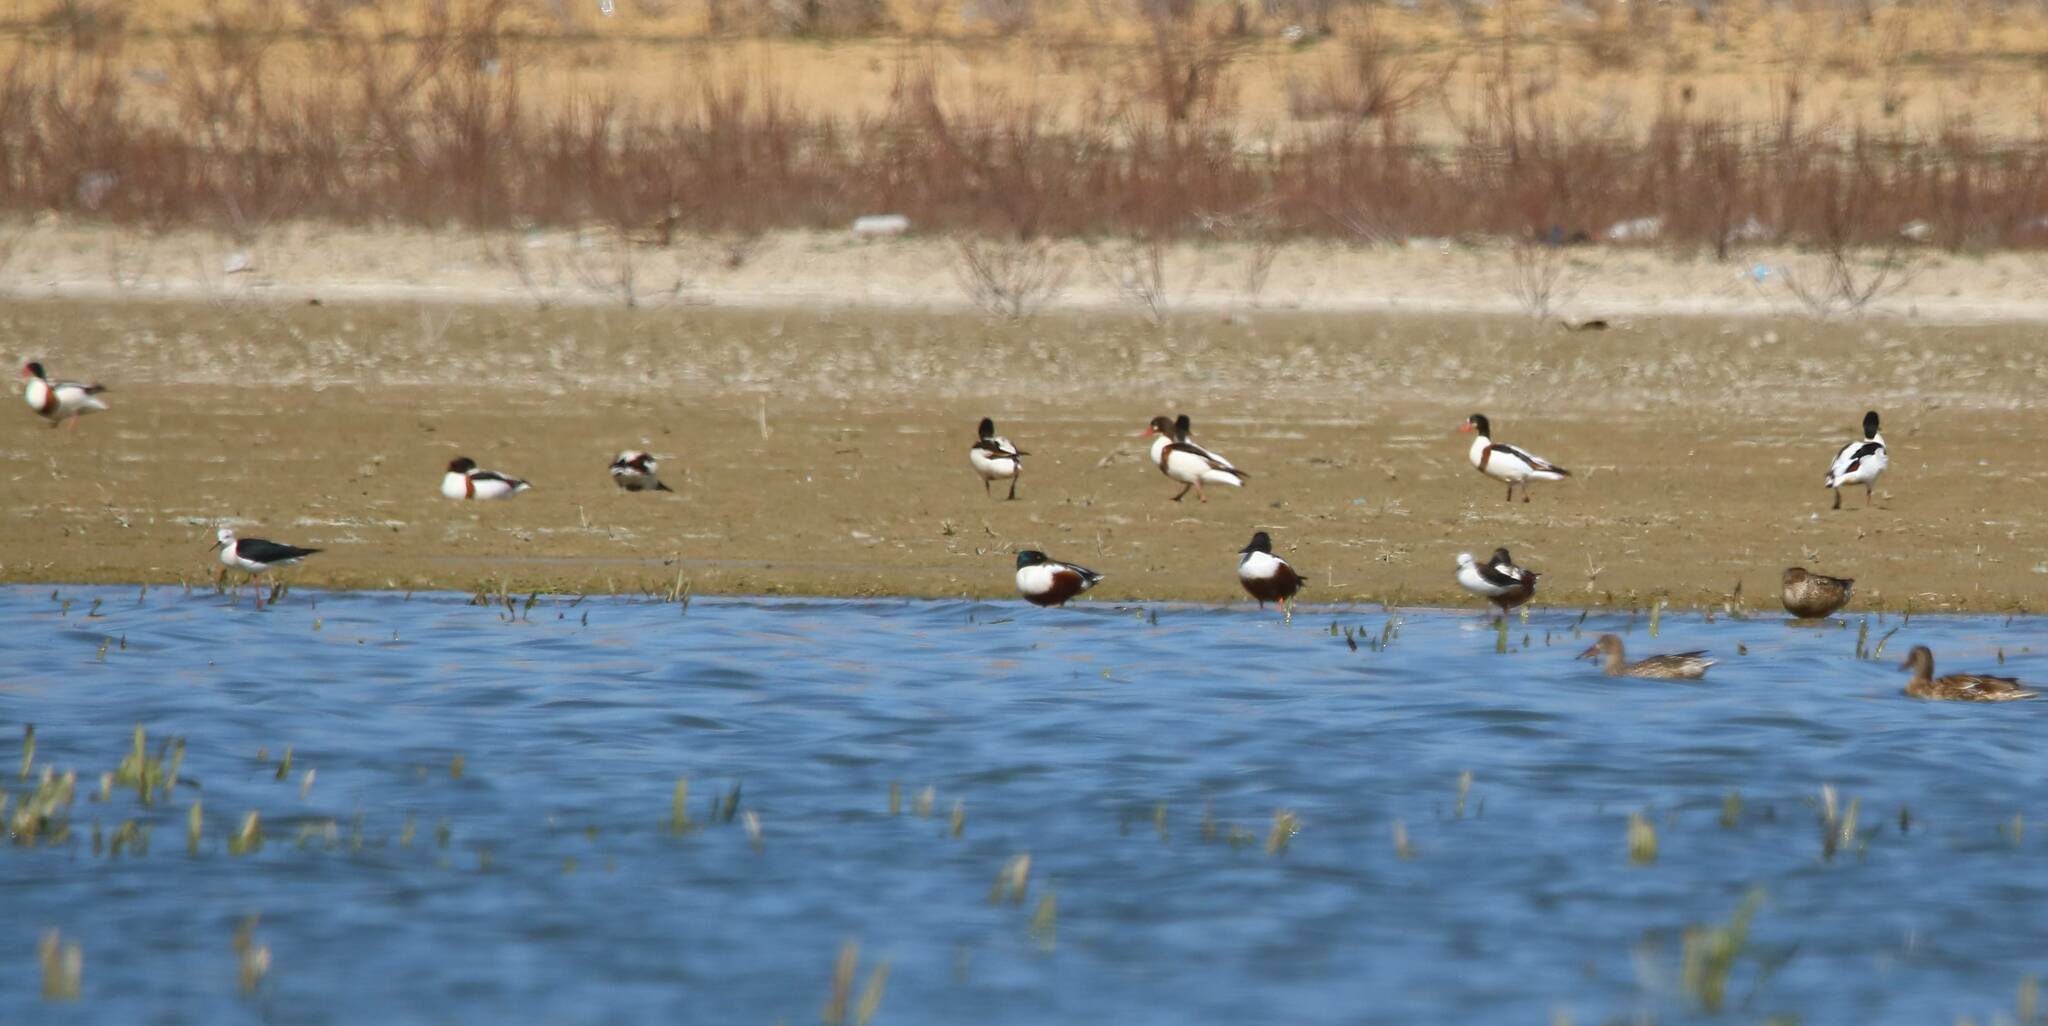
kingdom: Animalia
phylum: Chordata
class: Aves
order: Anseriformes
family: Anatidae
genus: Tadorna
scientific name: Tadorna tadorna
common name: Common shelduck
